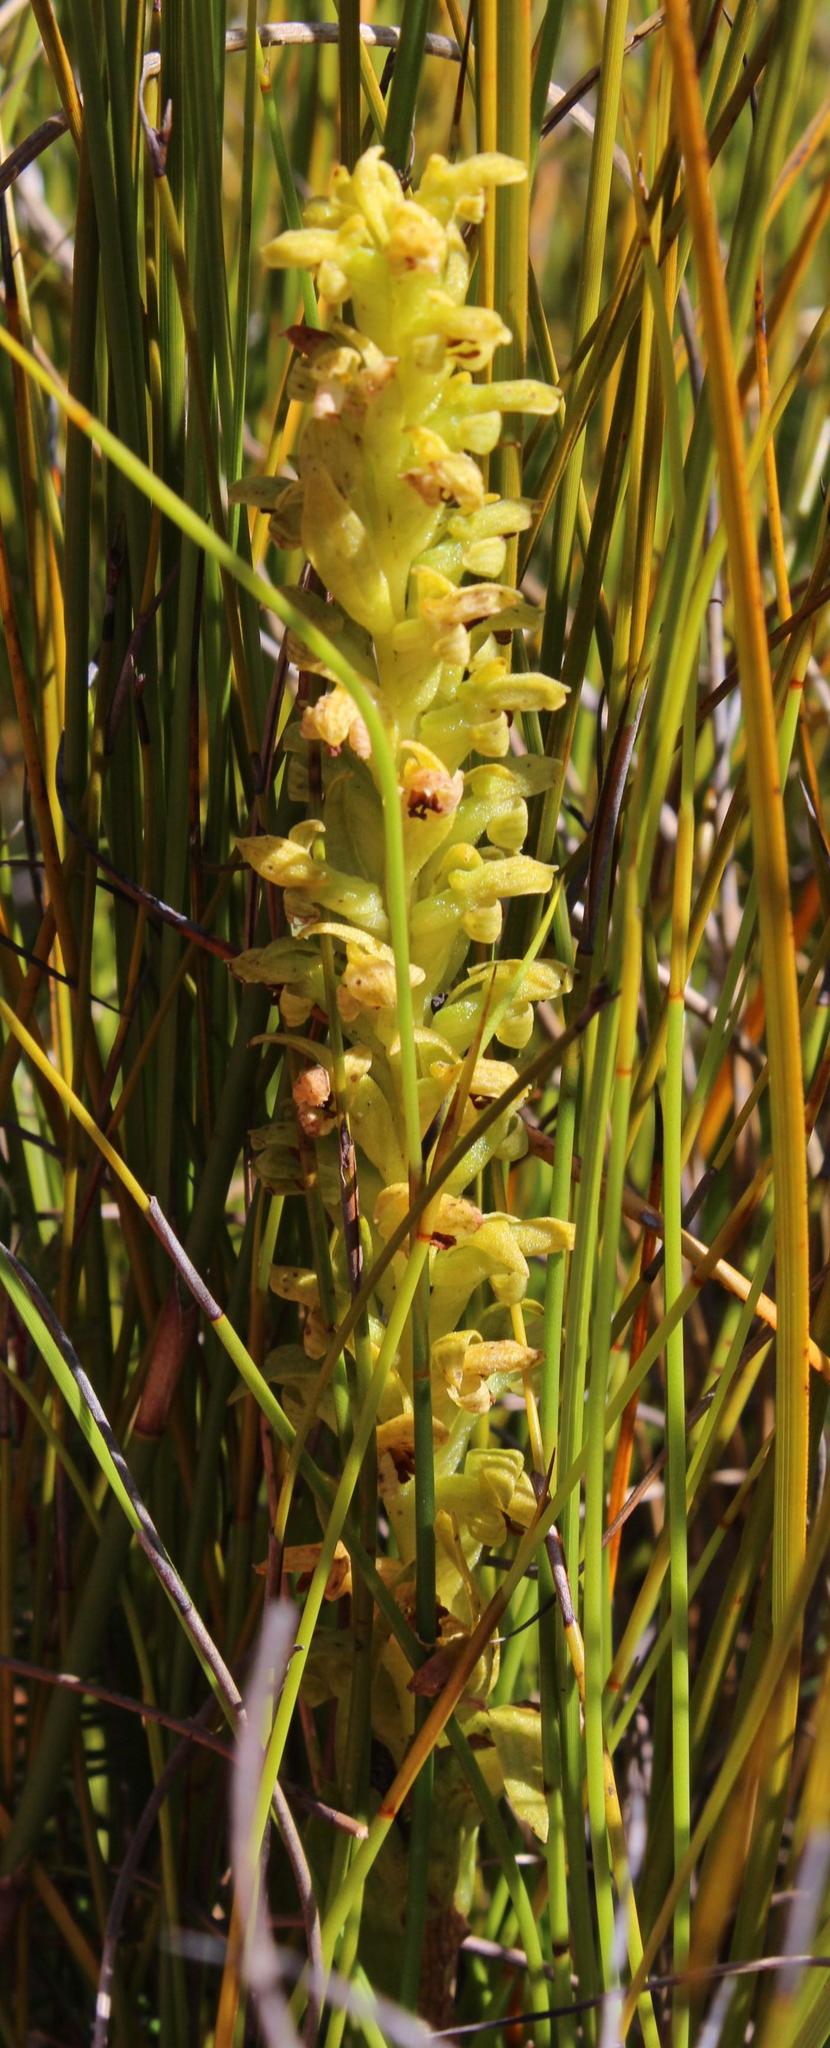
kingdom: Plantae
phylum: Tracheophyta
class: Liliopsida
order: Asparagales
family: Orchidaceae
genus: Disa
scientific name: Disa cylindrica
